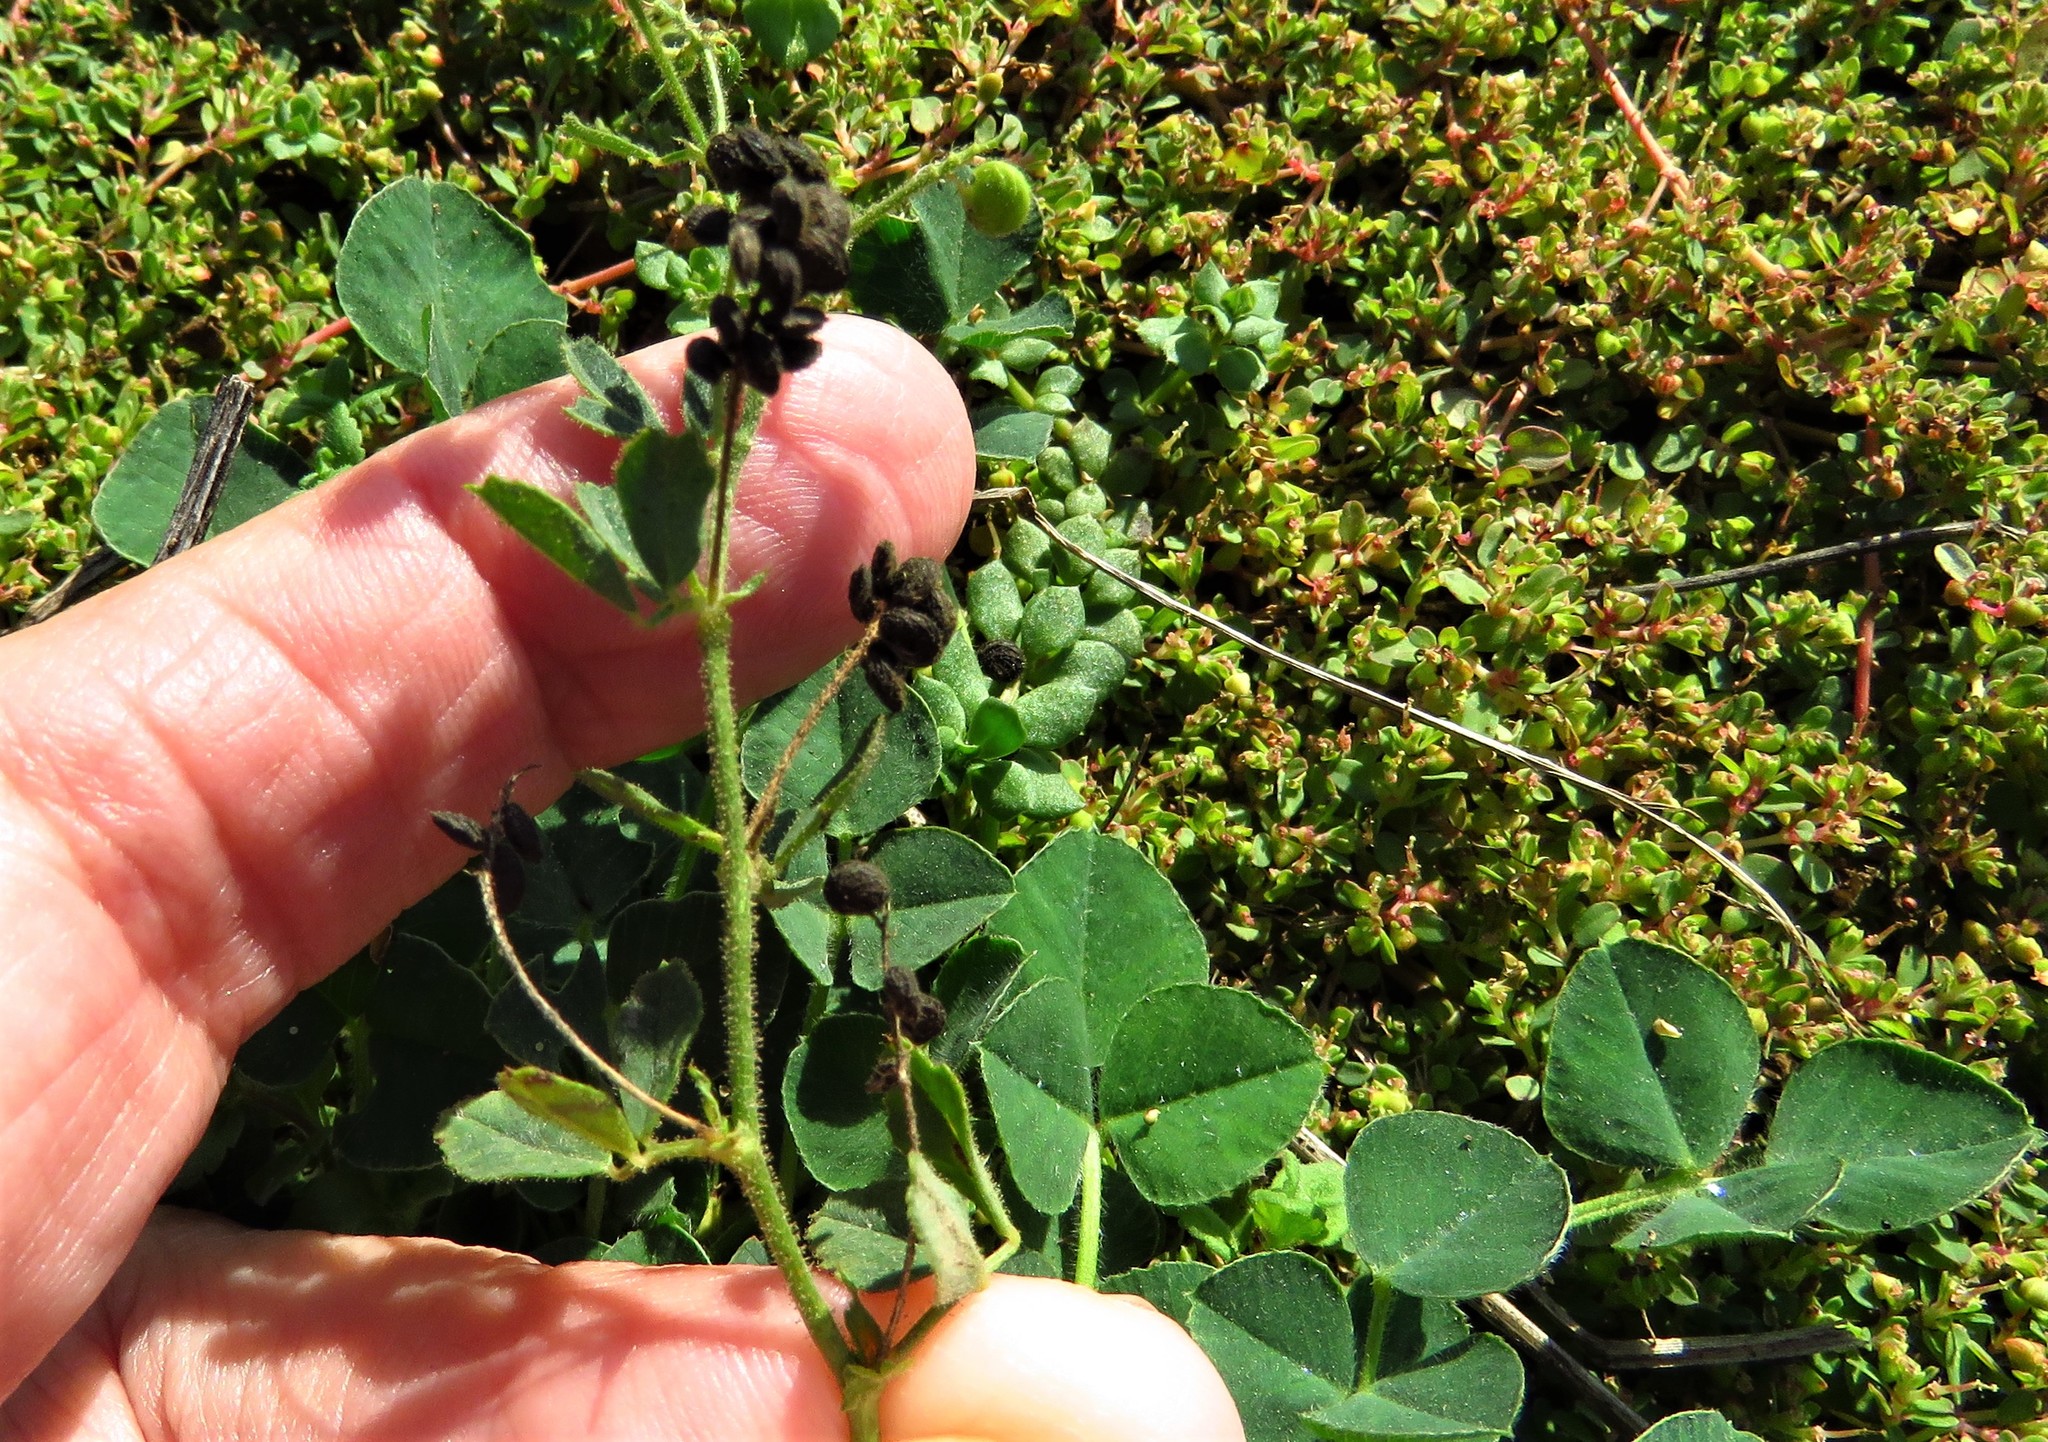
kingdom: Plantae
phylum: Tracheophyta
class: Magnoliopsida
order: Fabales
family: Fabaceae
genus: Medicago
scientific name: Medicago lupulina
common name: Black medick
